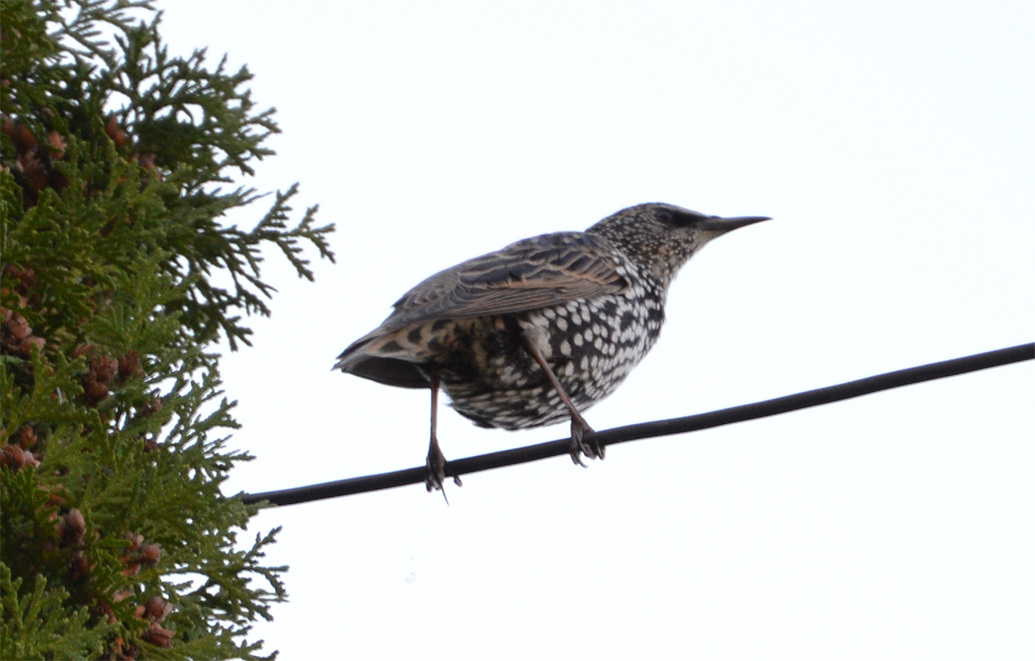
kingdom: Animalia
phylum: Chordata
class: Aves
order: Passeriformes
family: Sturnidae
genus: Sturnus
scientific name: Sturnus vulgaris
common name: Common starling
